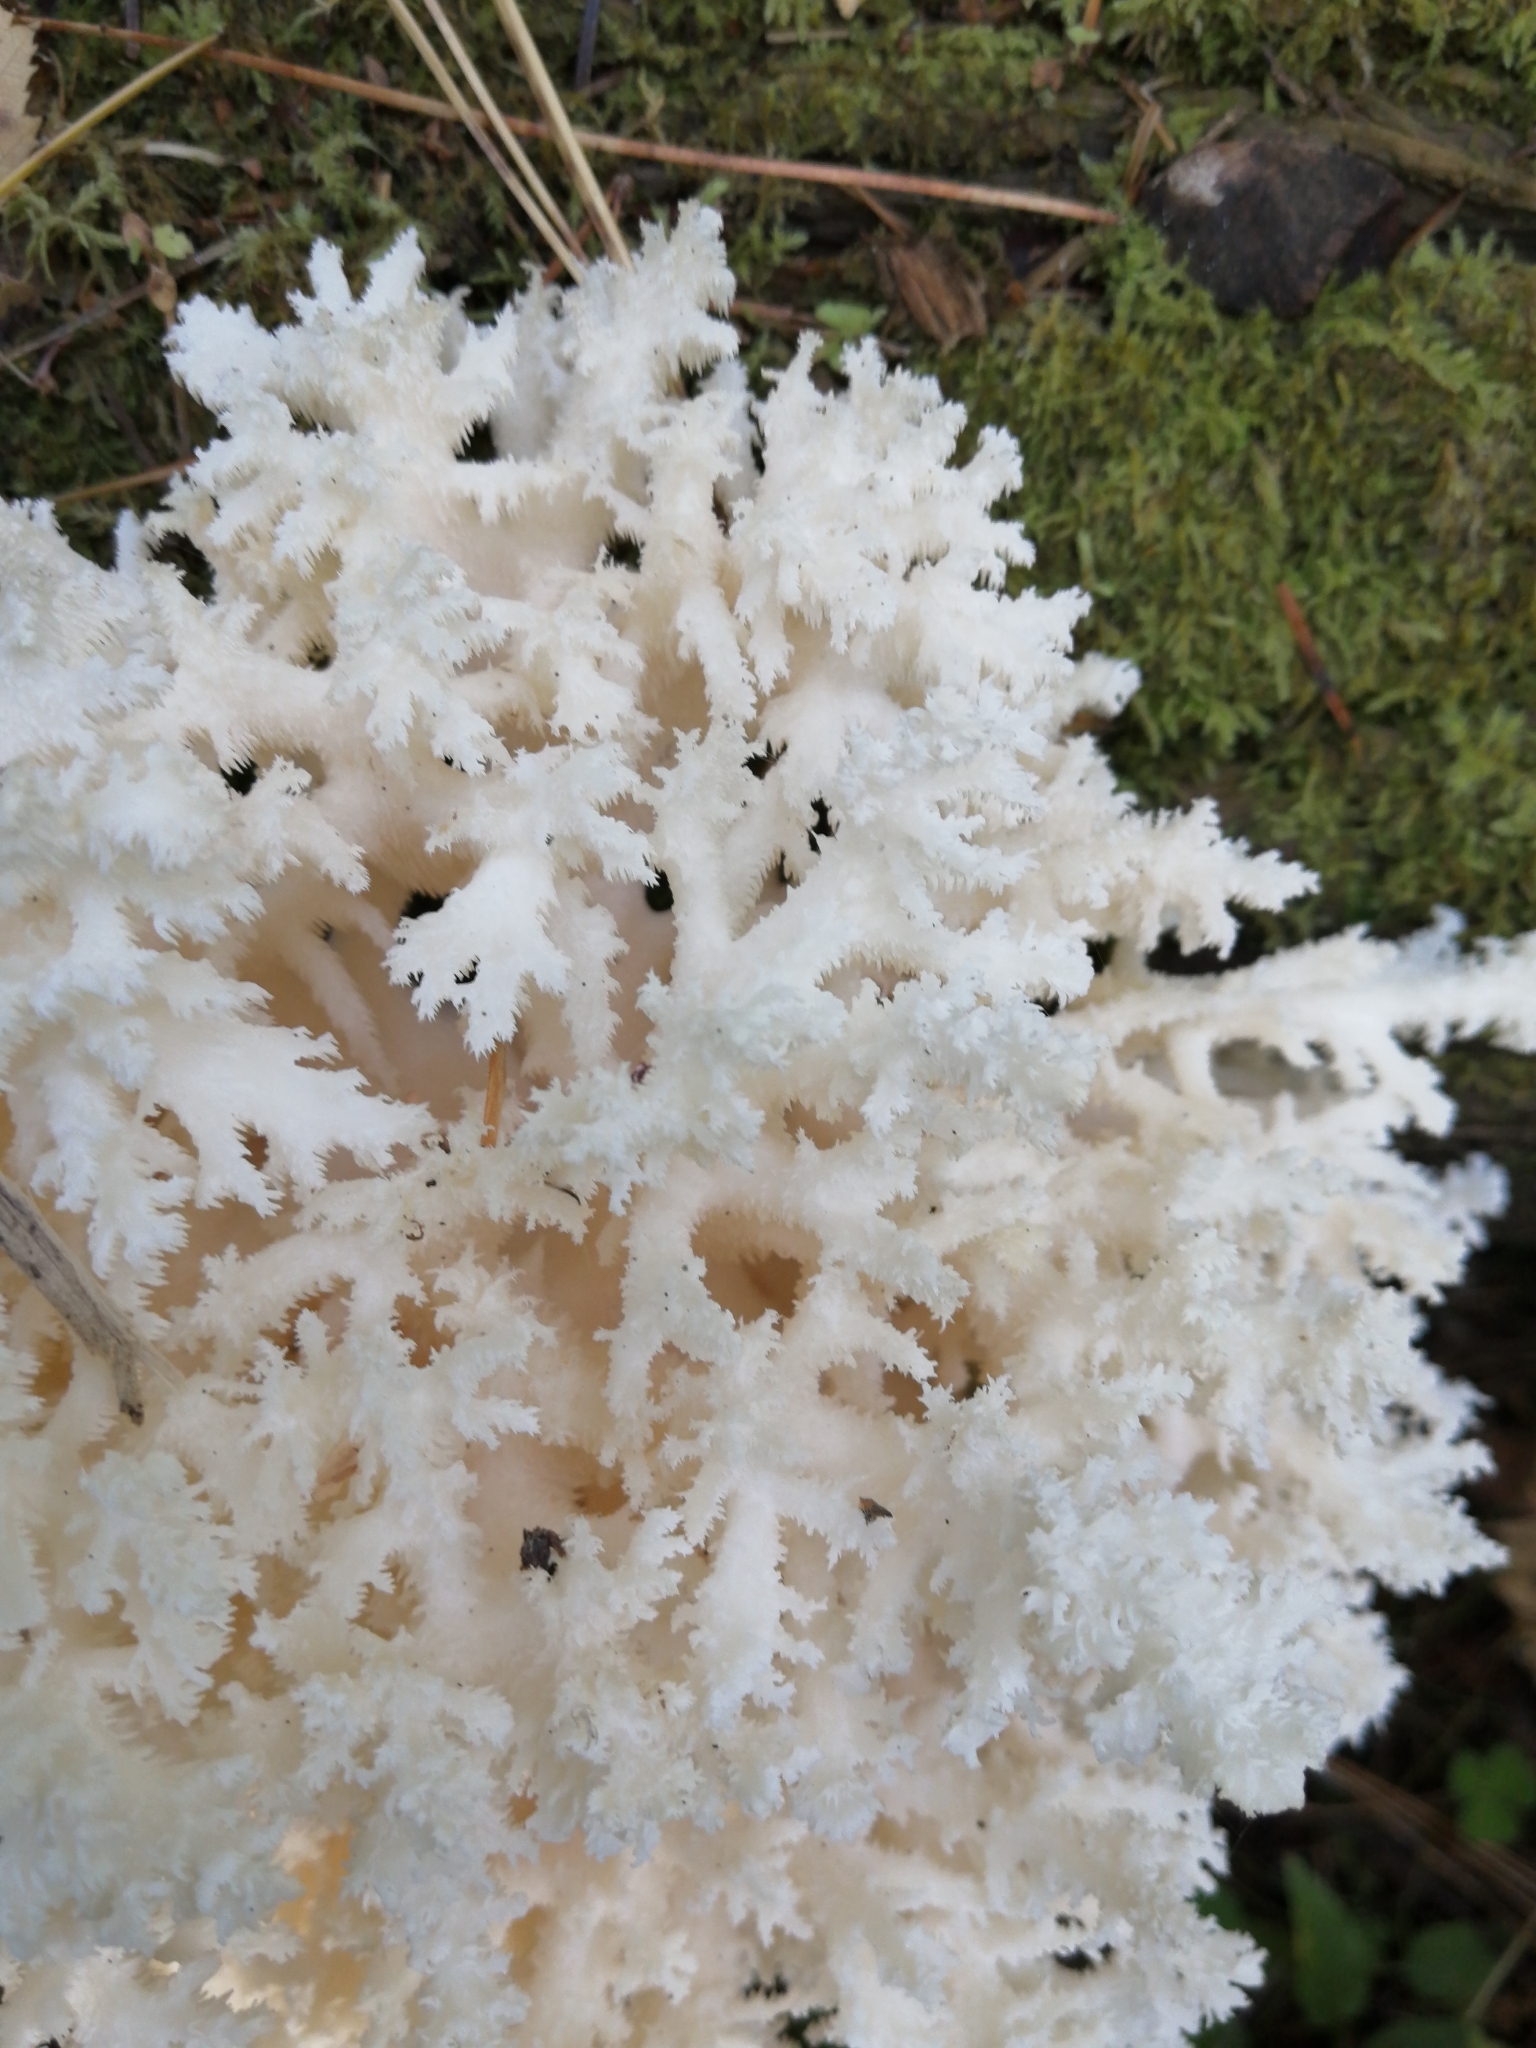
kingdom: Fungi
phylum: Basidiomycota
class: Agaricomycetes
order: Russulales
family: Hericiaceae
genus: Hericium
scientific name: Hericium coralloides
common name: Coral tooth
